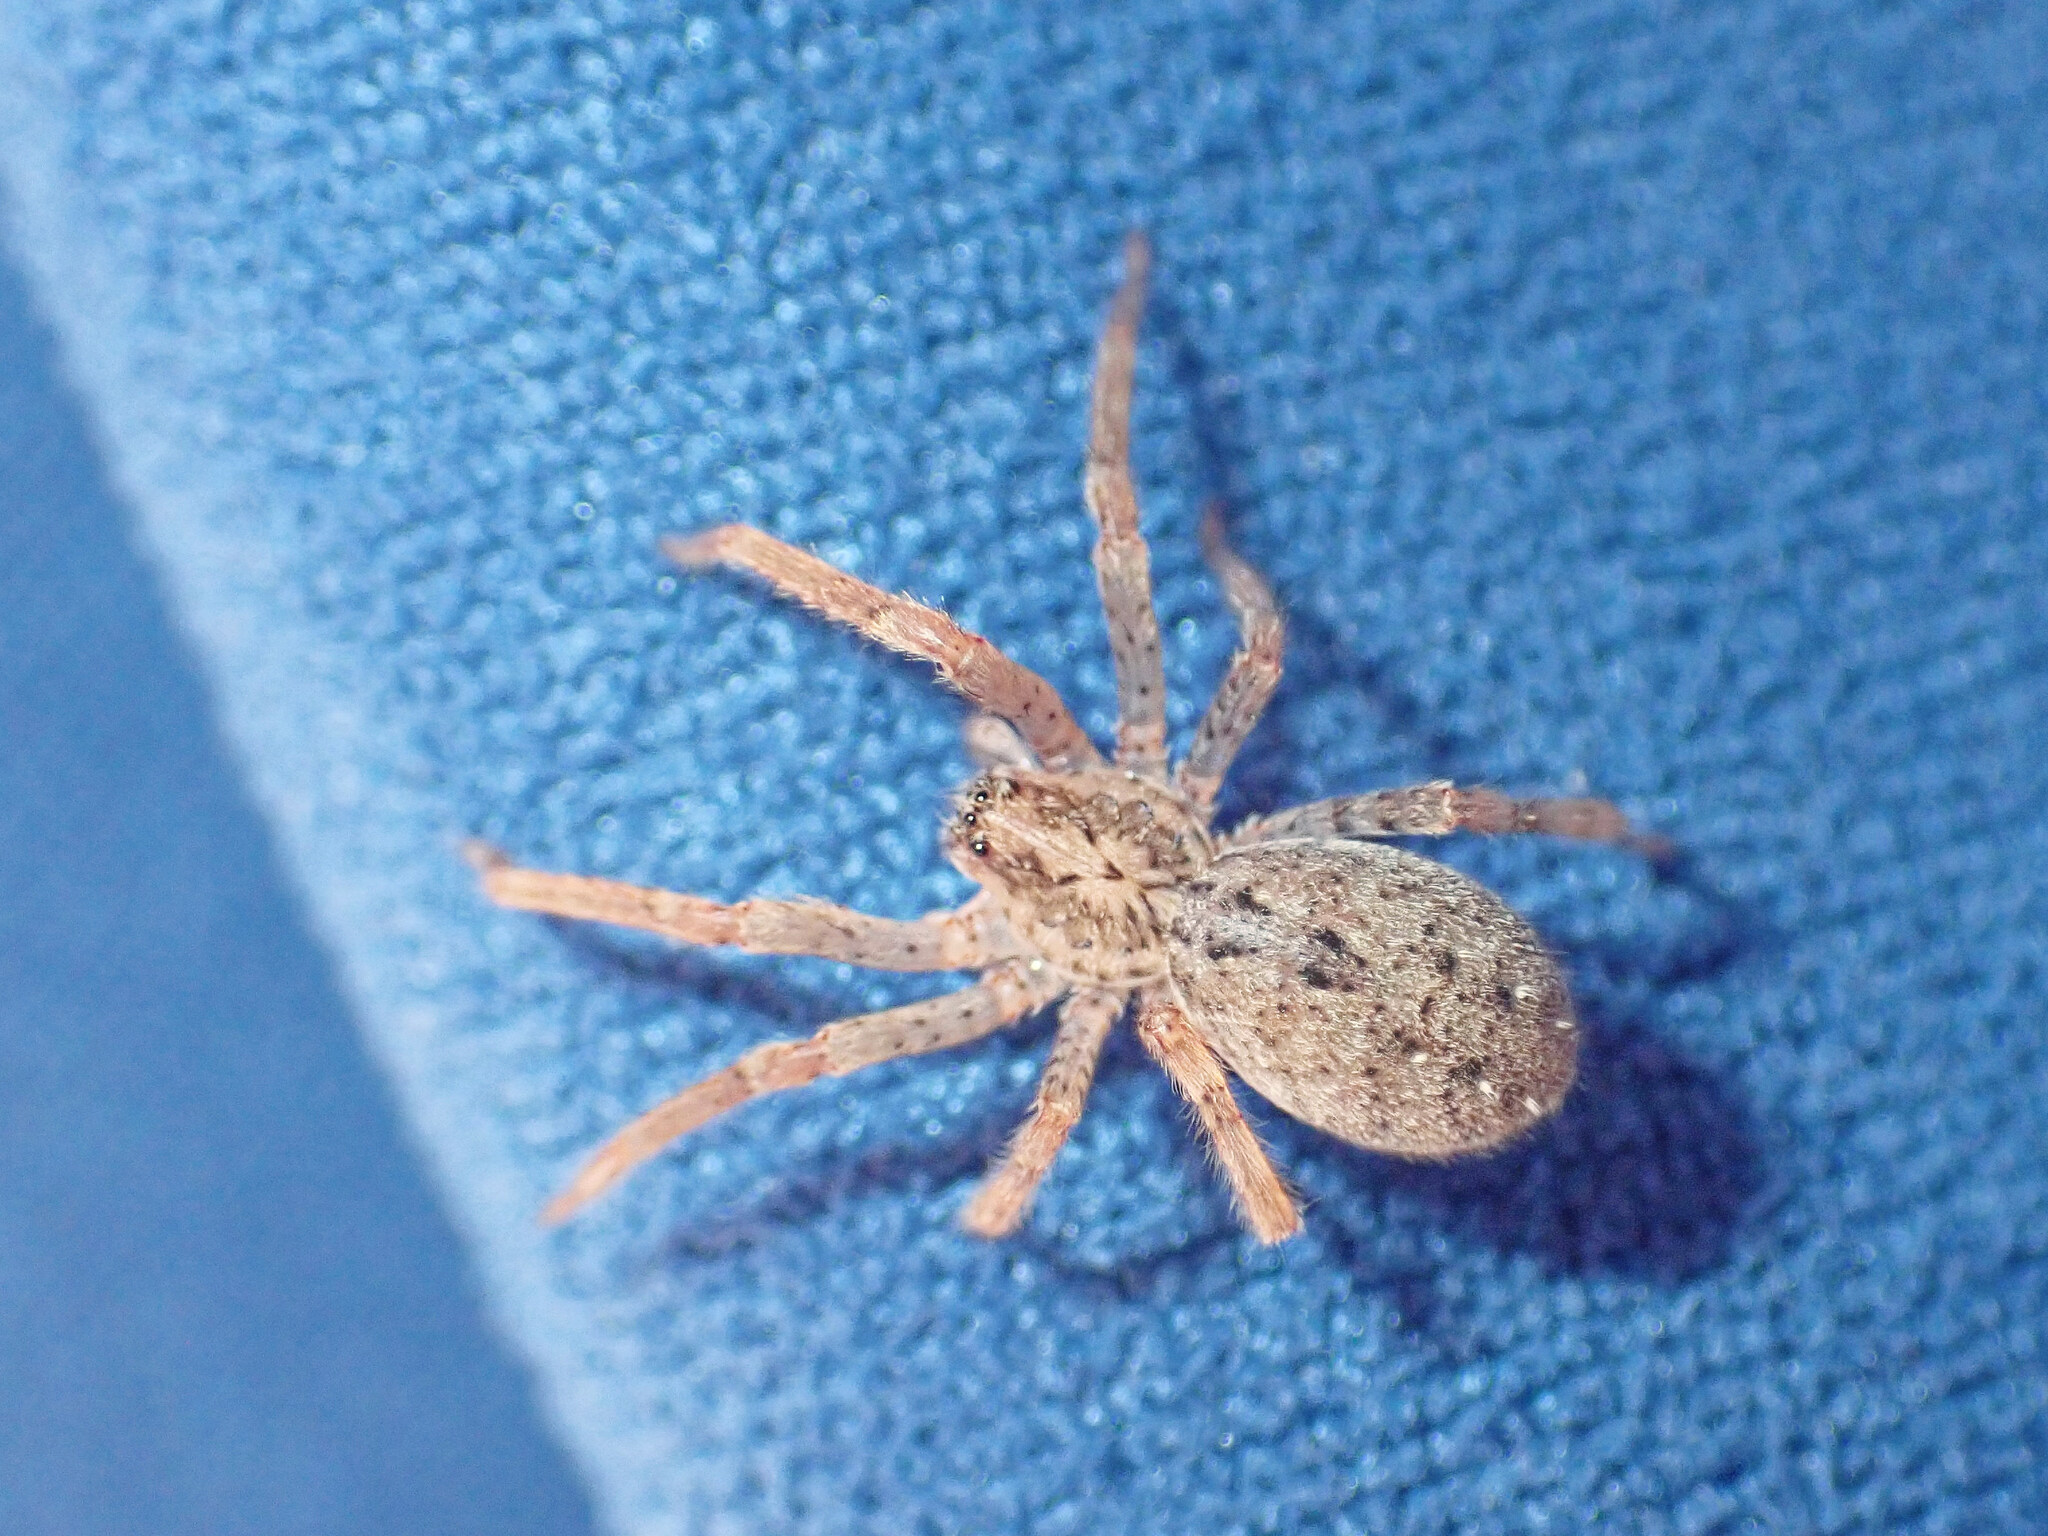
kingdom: Animalia
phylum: Arthropoda
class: Arachnida
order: Araneae
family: Zoropsidae
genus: Zoropsis
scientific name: Zoropsis spinimana
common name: Zoropsid spider
